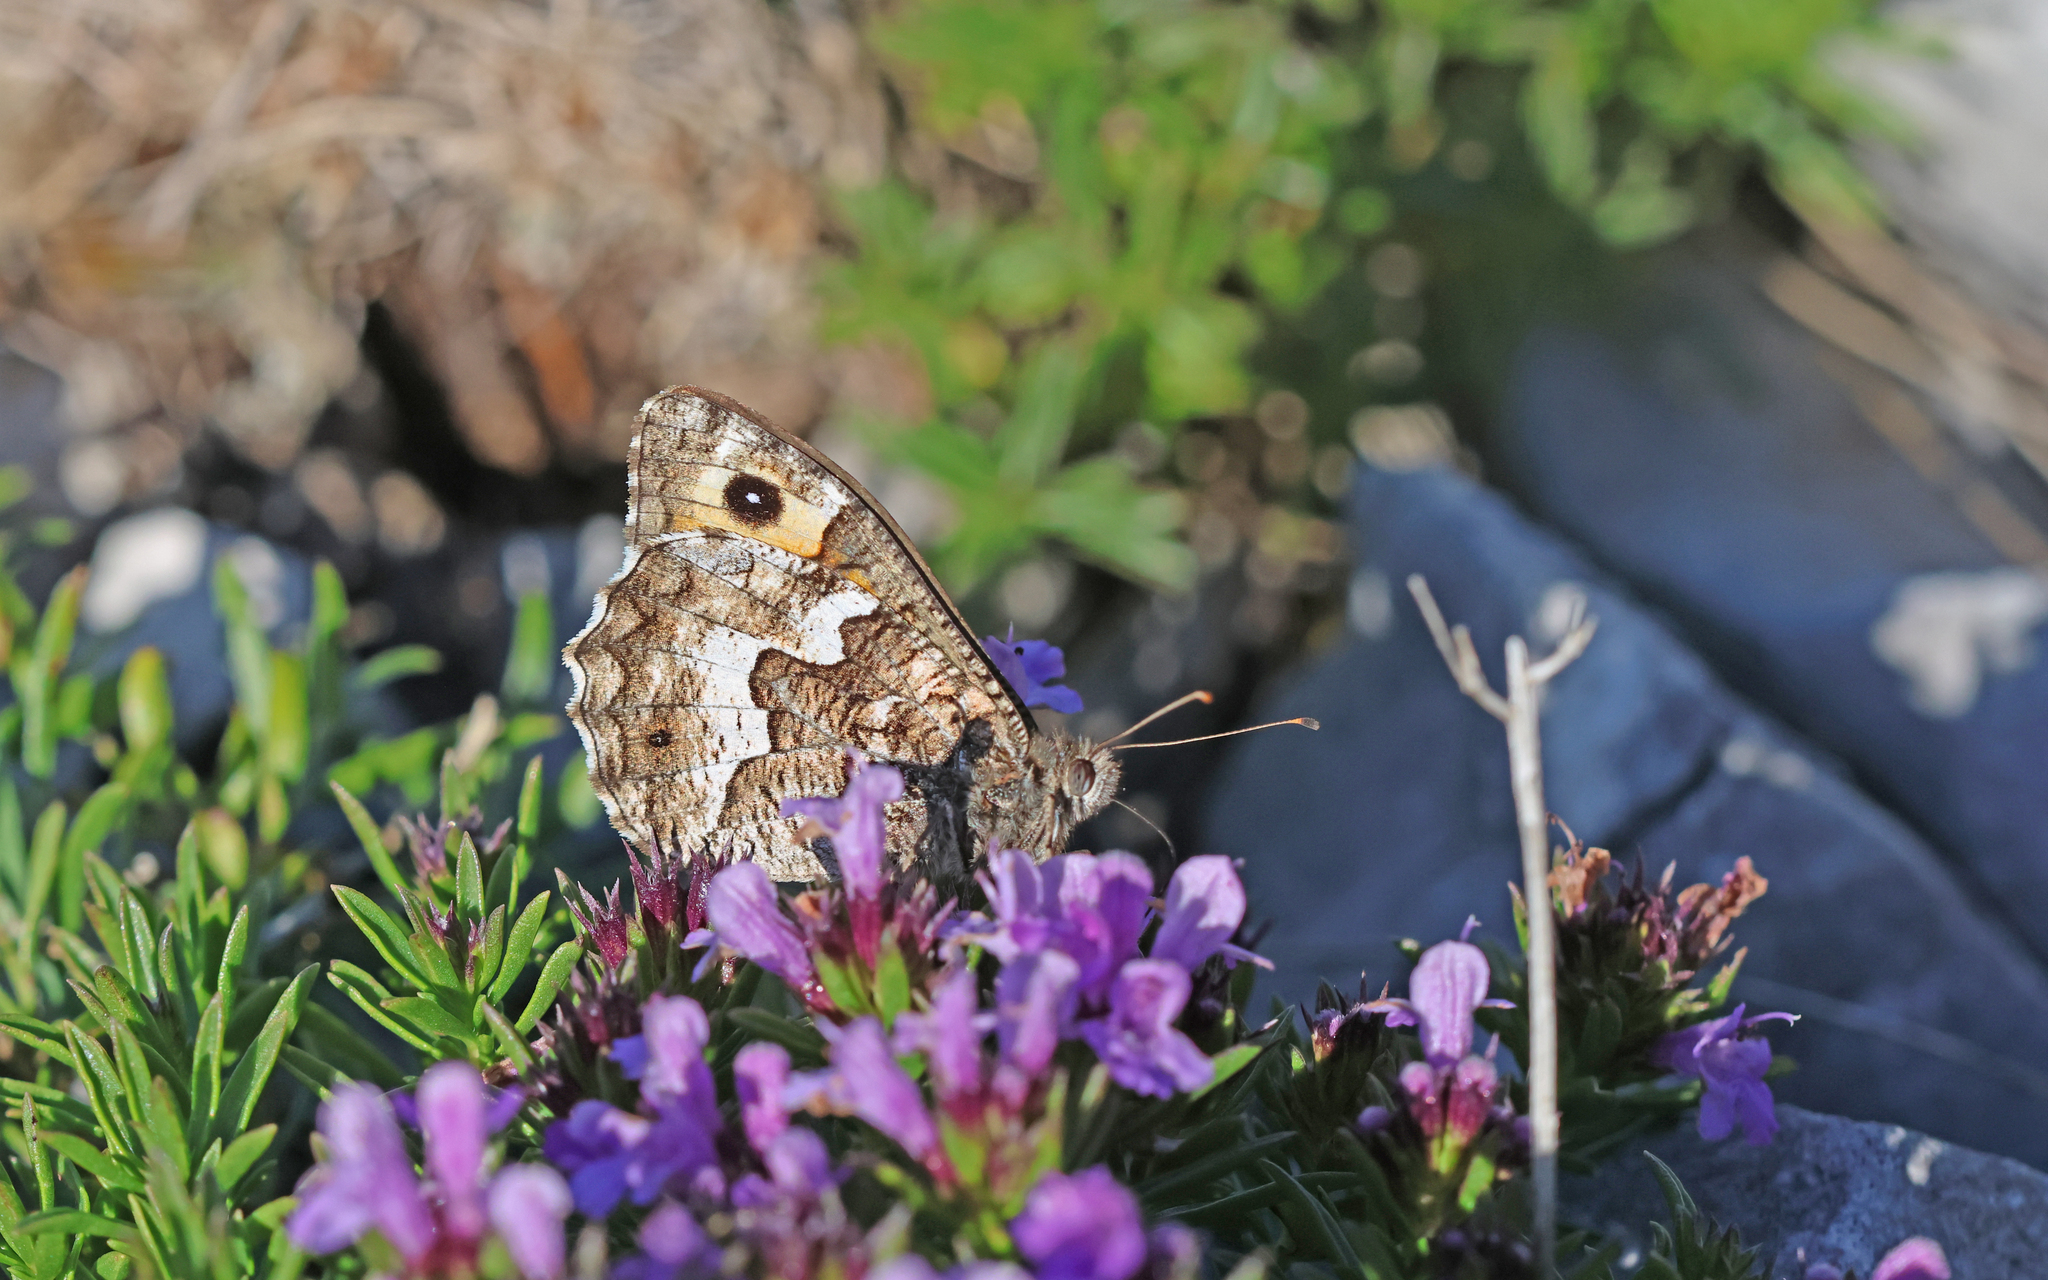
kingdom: Animalia
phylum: Arthropoda
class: Insecta
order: Lepidoptera
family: Nymphalidae
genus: Hipparchia
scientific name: Hipparchia semele
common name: Grayling
